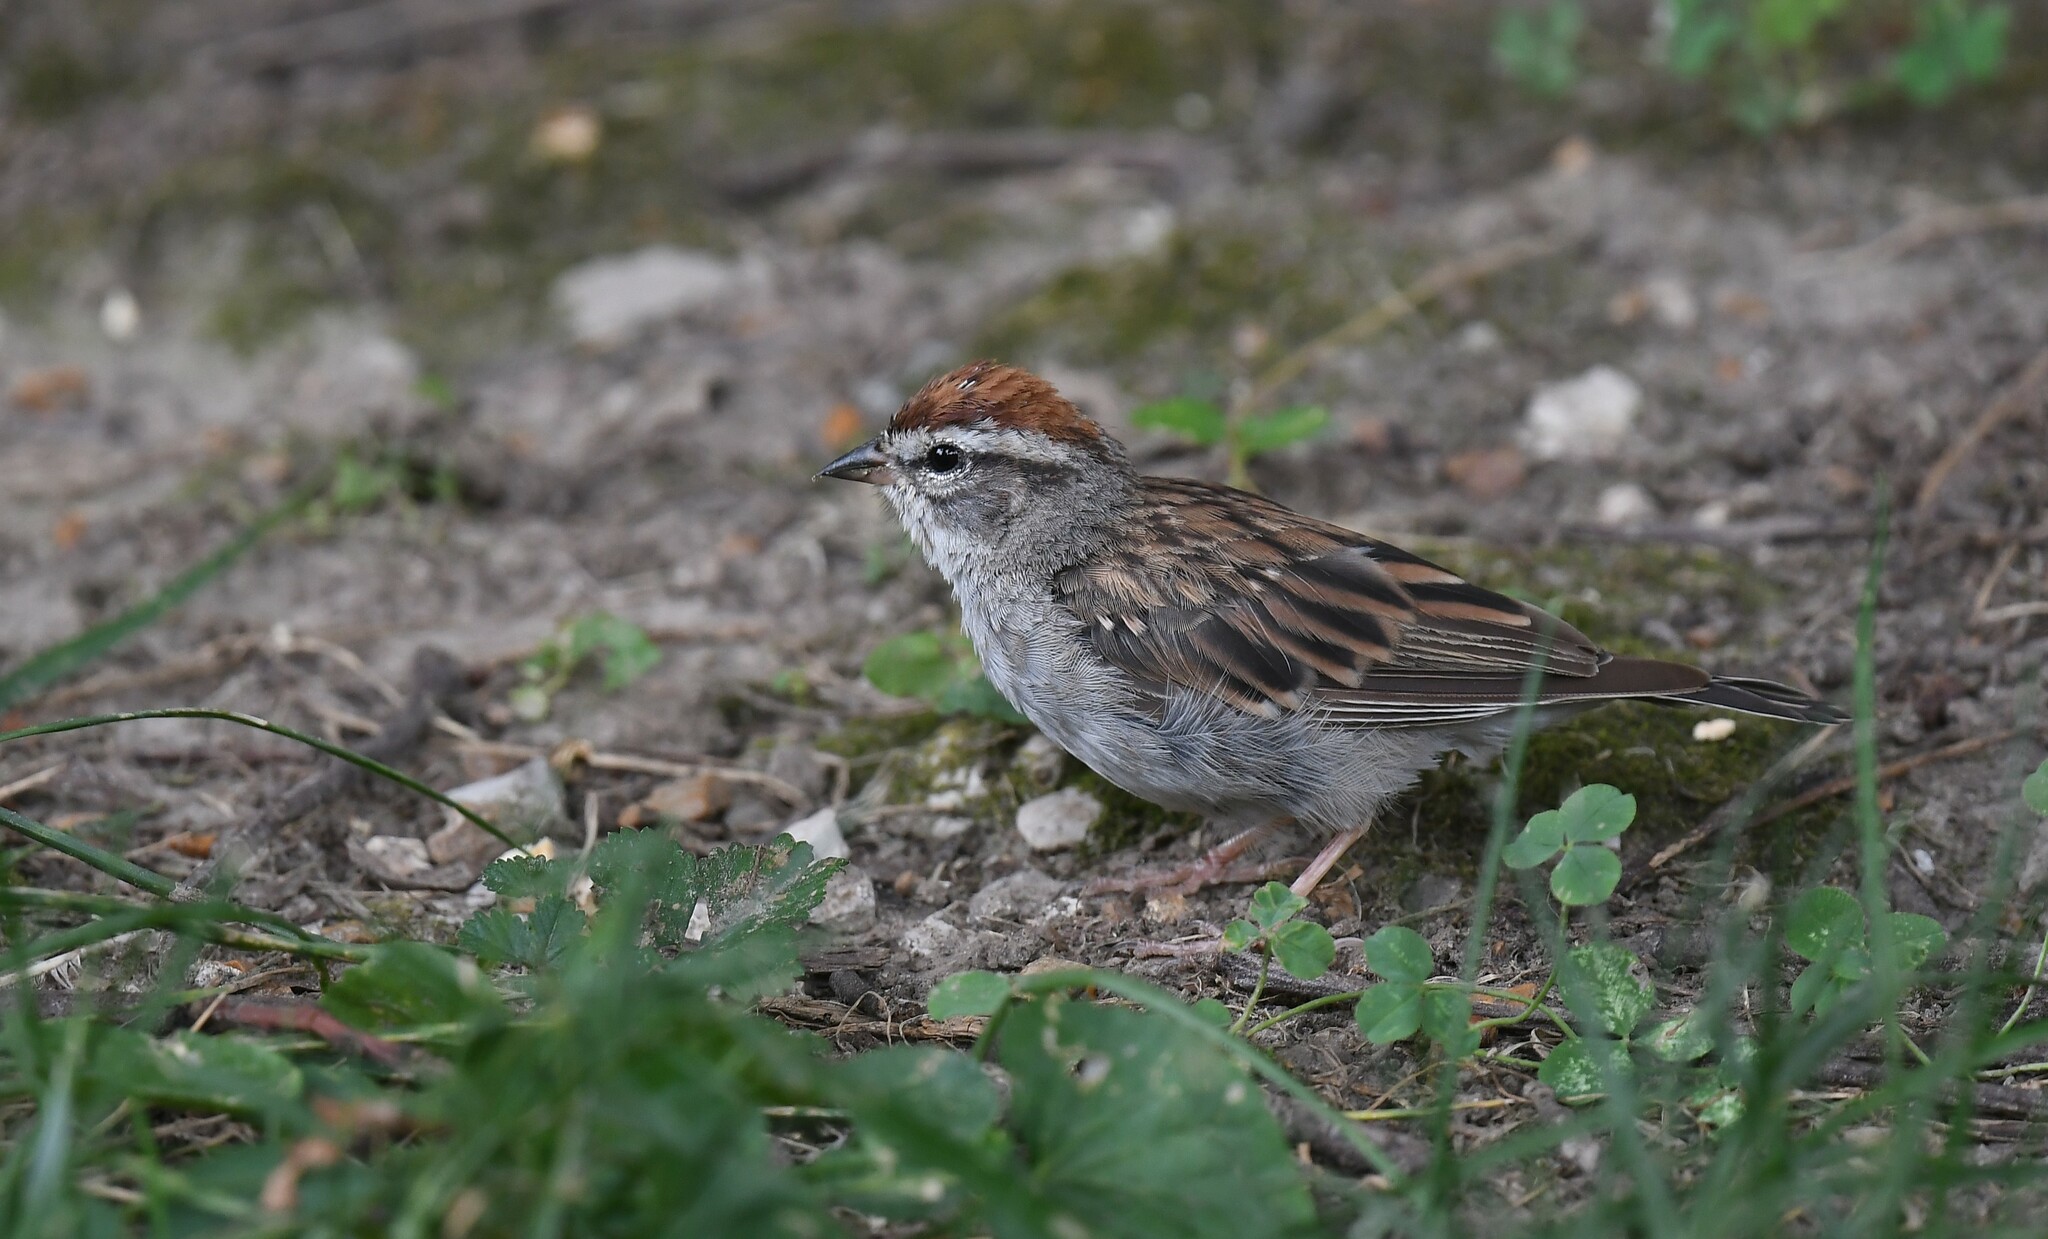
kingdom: Animalia
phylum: Chordata
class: Aves
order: Passeriformes
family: Passerellidae
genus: Spizella
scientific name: Spizella passerina
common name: Chipping sparrow
